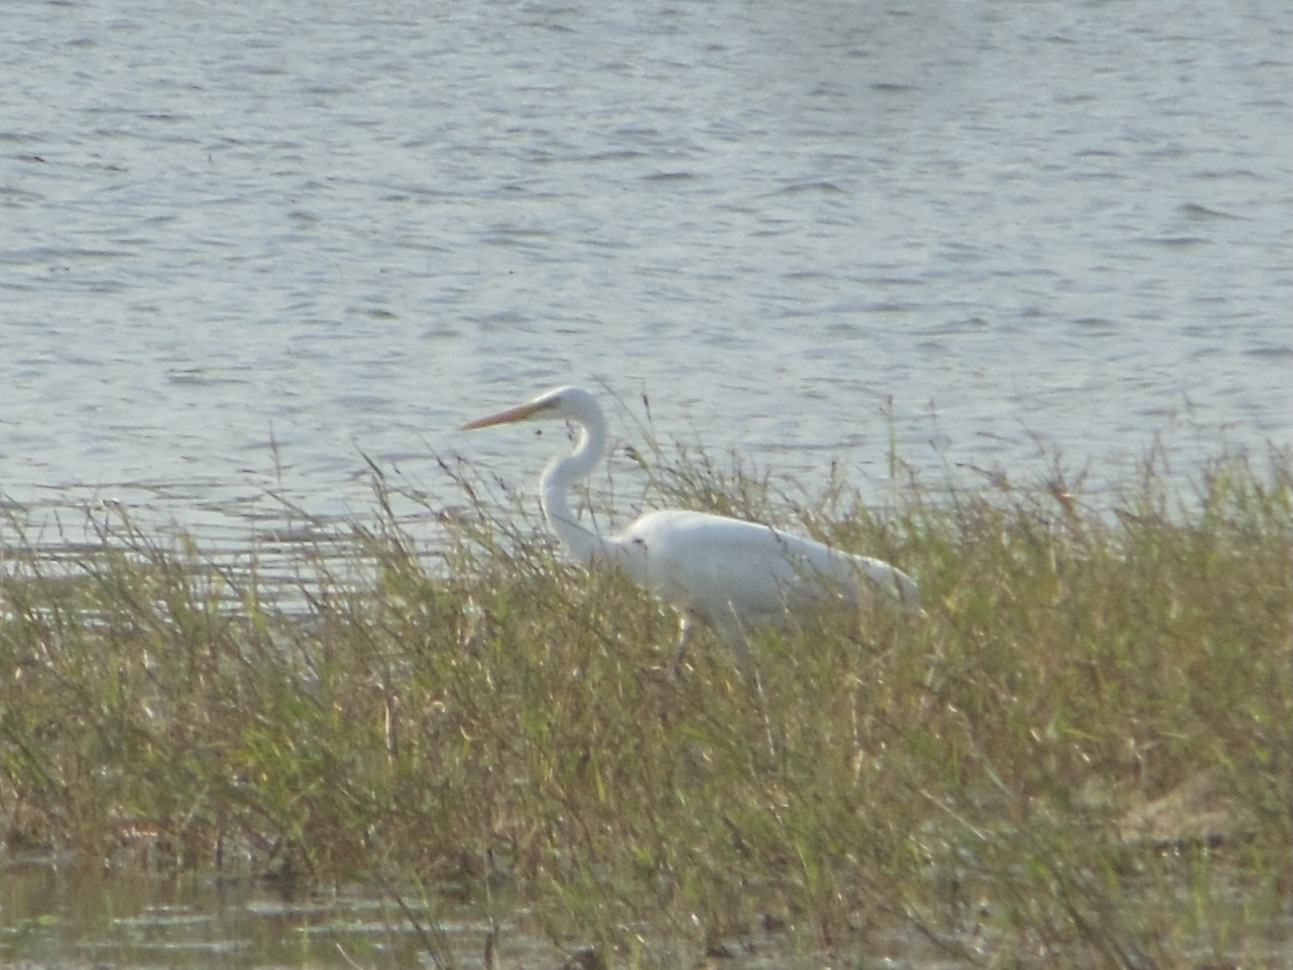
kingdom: Animalia
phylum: Chordata
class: Aves
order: Pelecaniformes
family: Ardeidae
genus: Ardea
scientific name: Ardea alba
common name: Great egret
